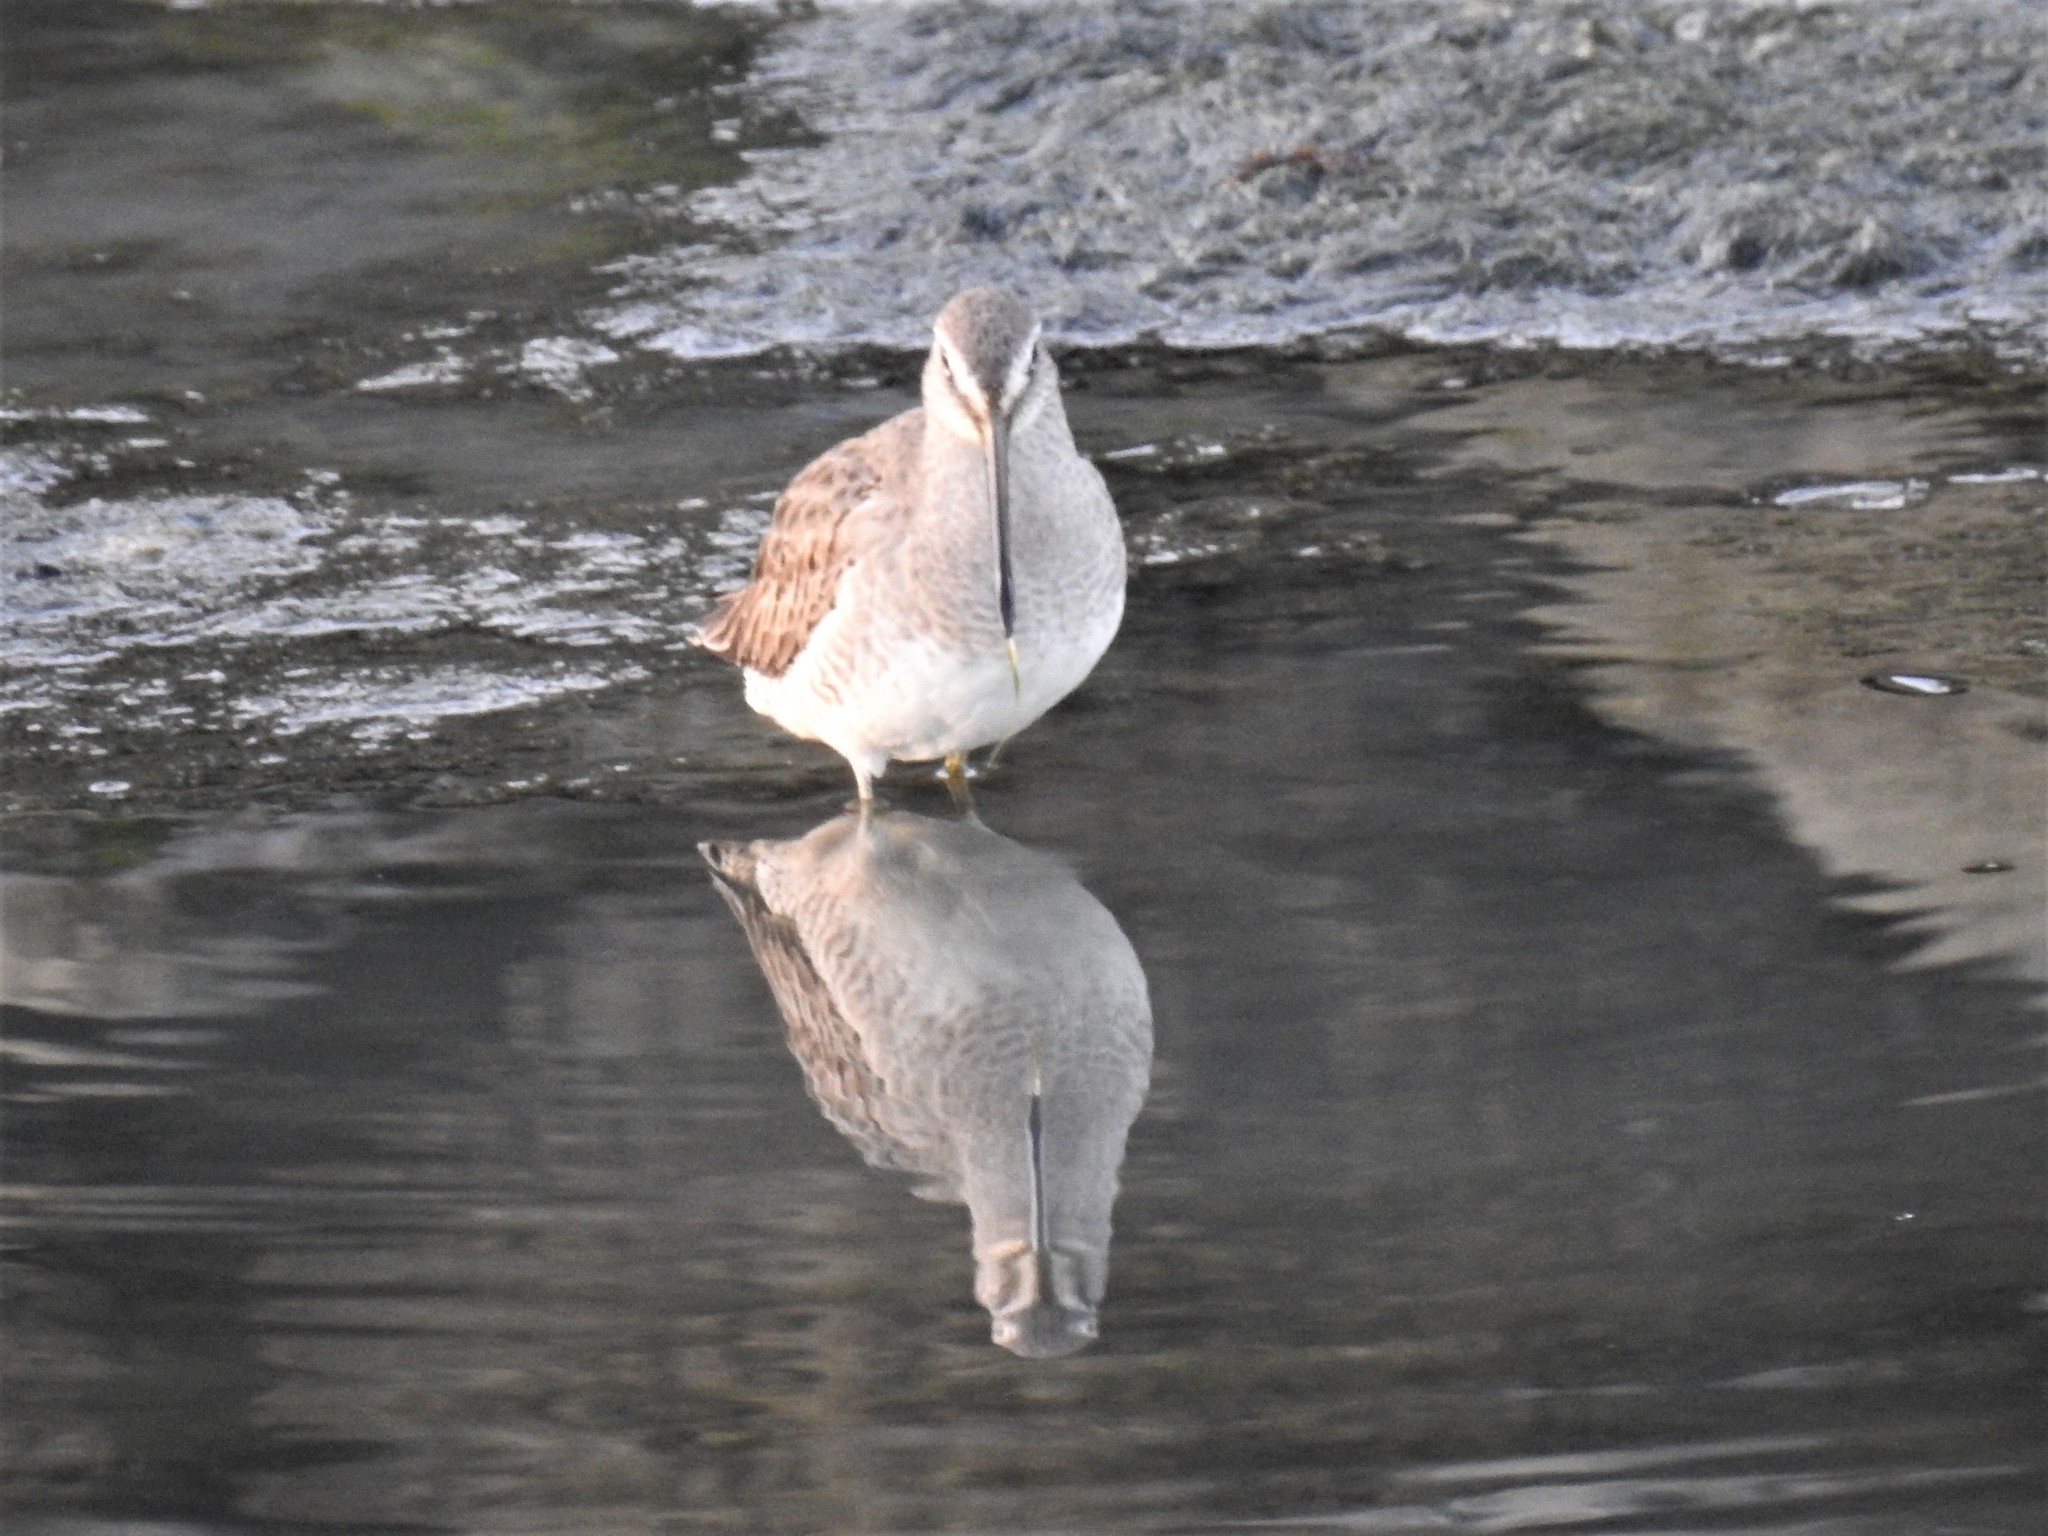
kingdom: Animalia
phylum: Chordata
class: Aves
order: Charadriiformes
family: Scolopacidae
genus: Limnodromus
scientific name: Limnodromus scolopaceus
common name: Long-billed dowitcher
